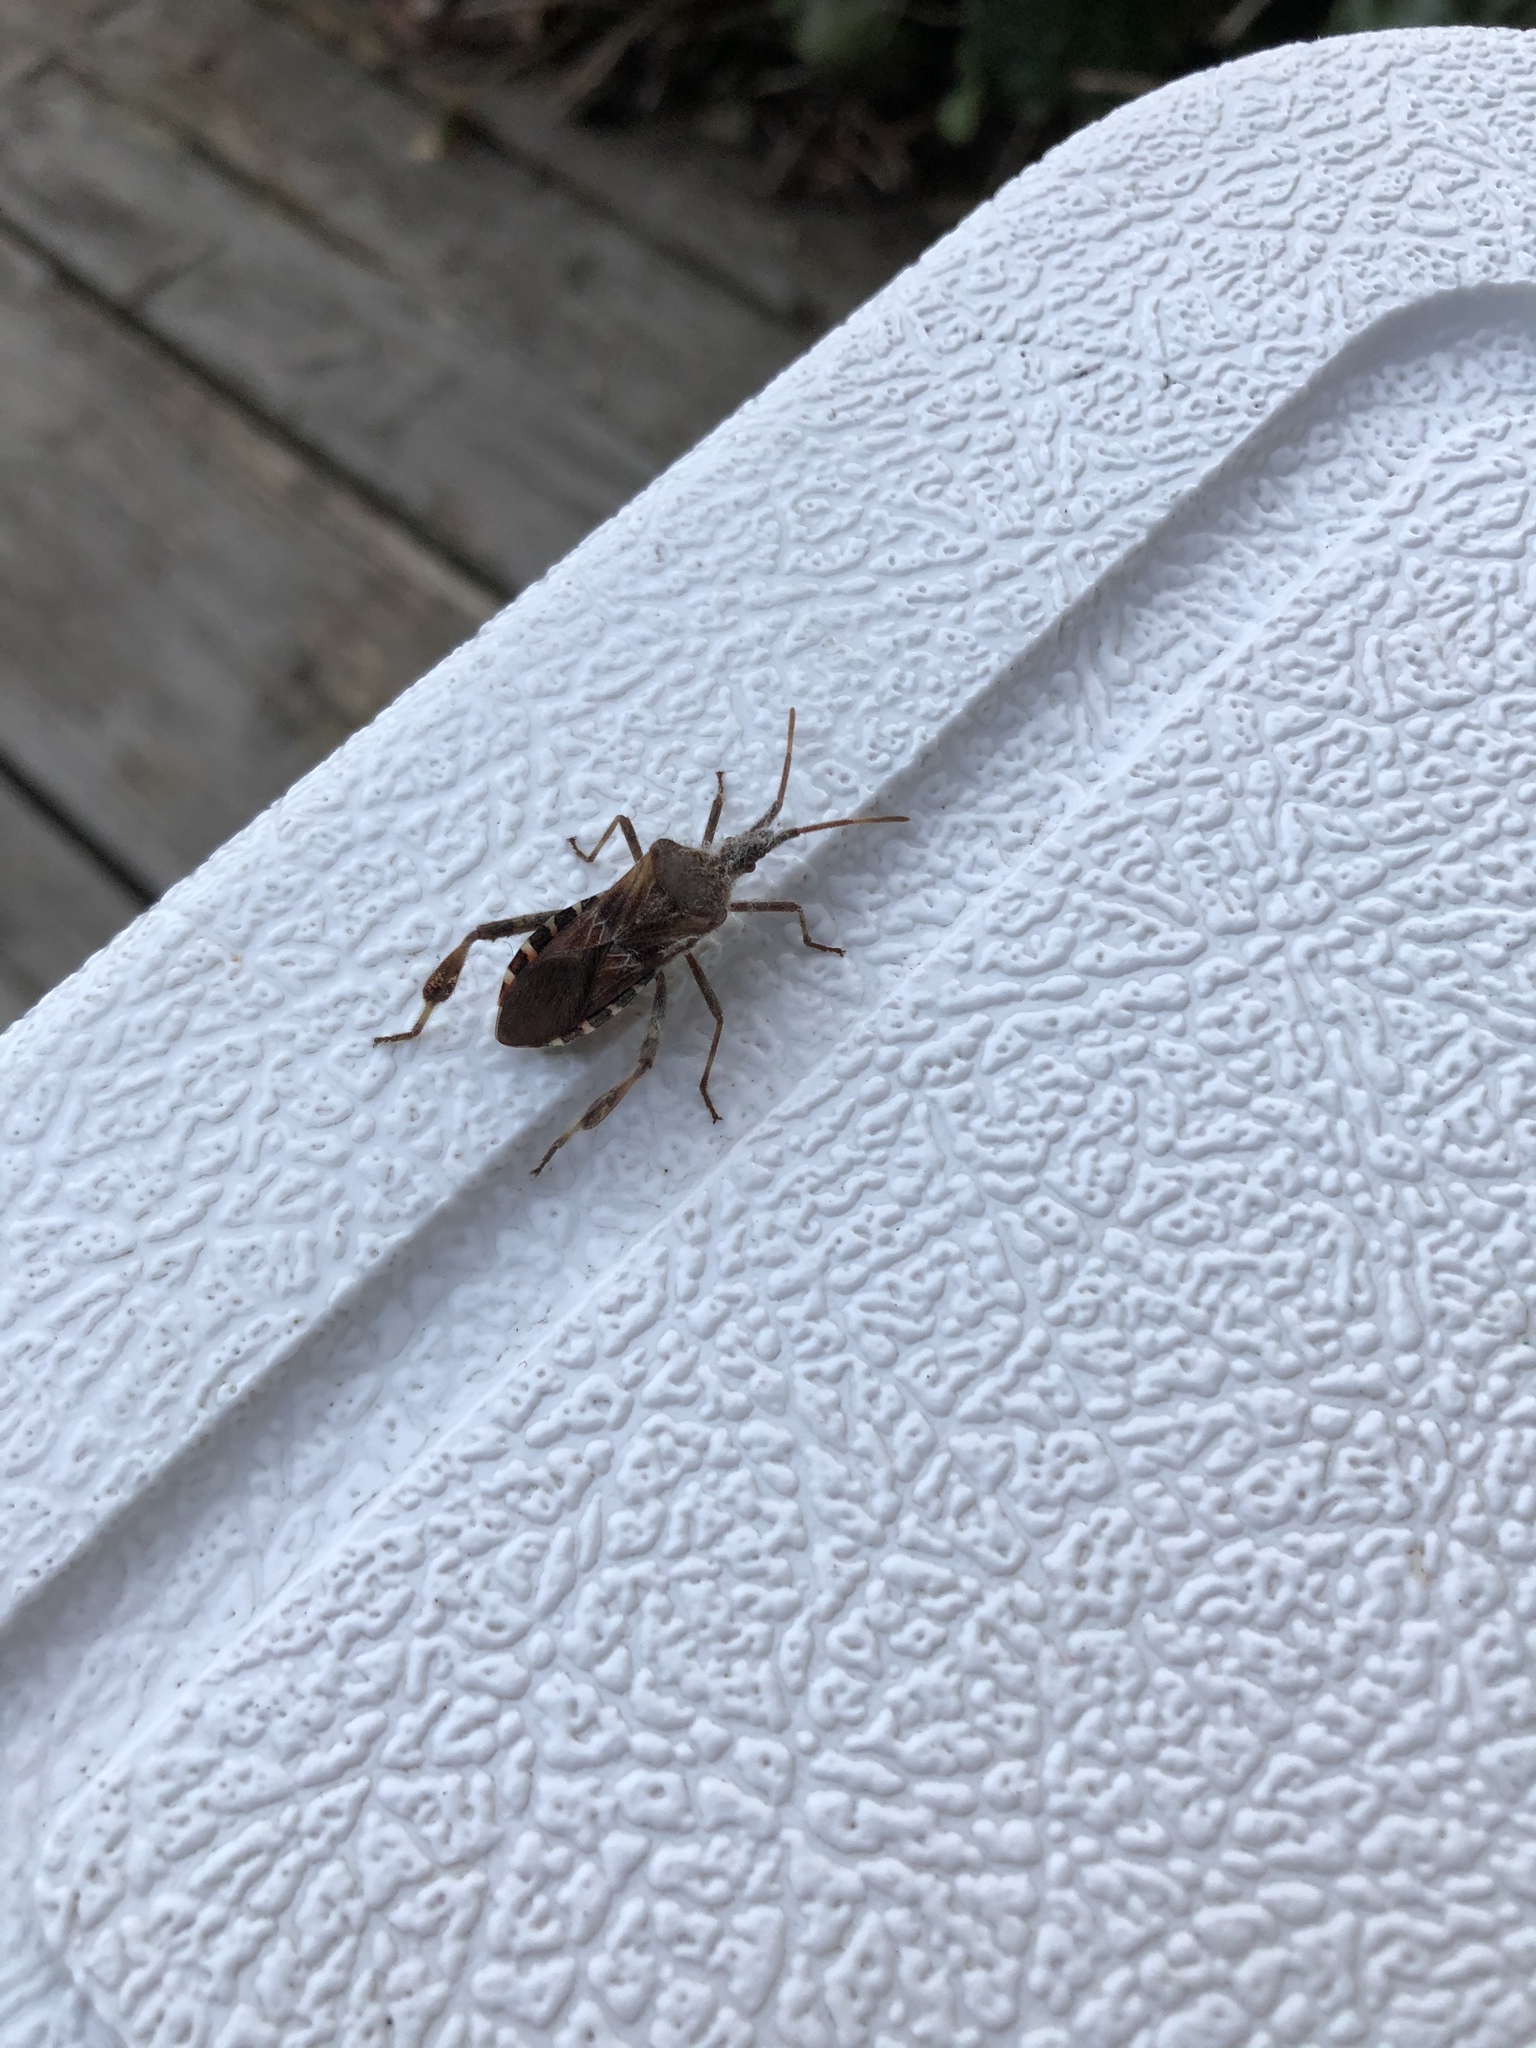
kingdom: Animalia
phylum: Arthropoda
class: Insecta
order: Hemiptera
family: Coreidae
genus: Leptoglossus
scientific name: Leptoglossus occidentalis
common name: Western conifer-seed bug
